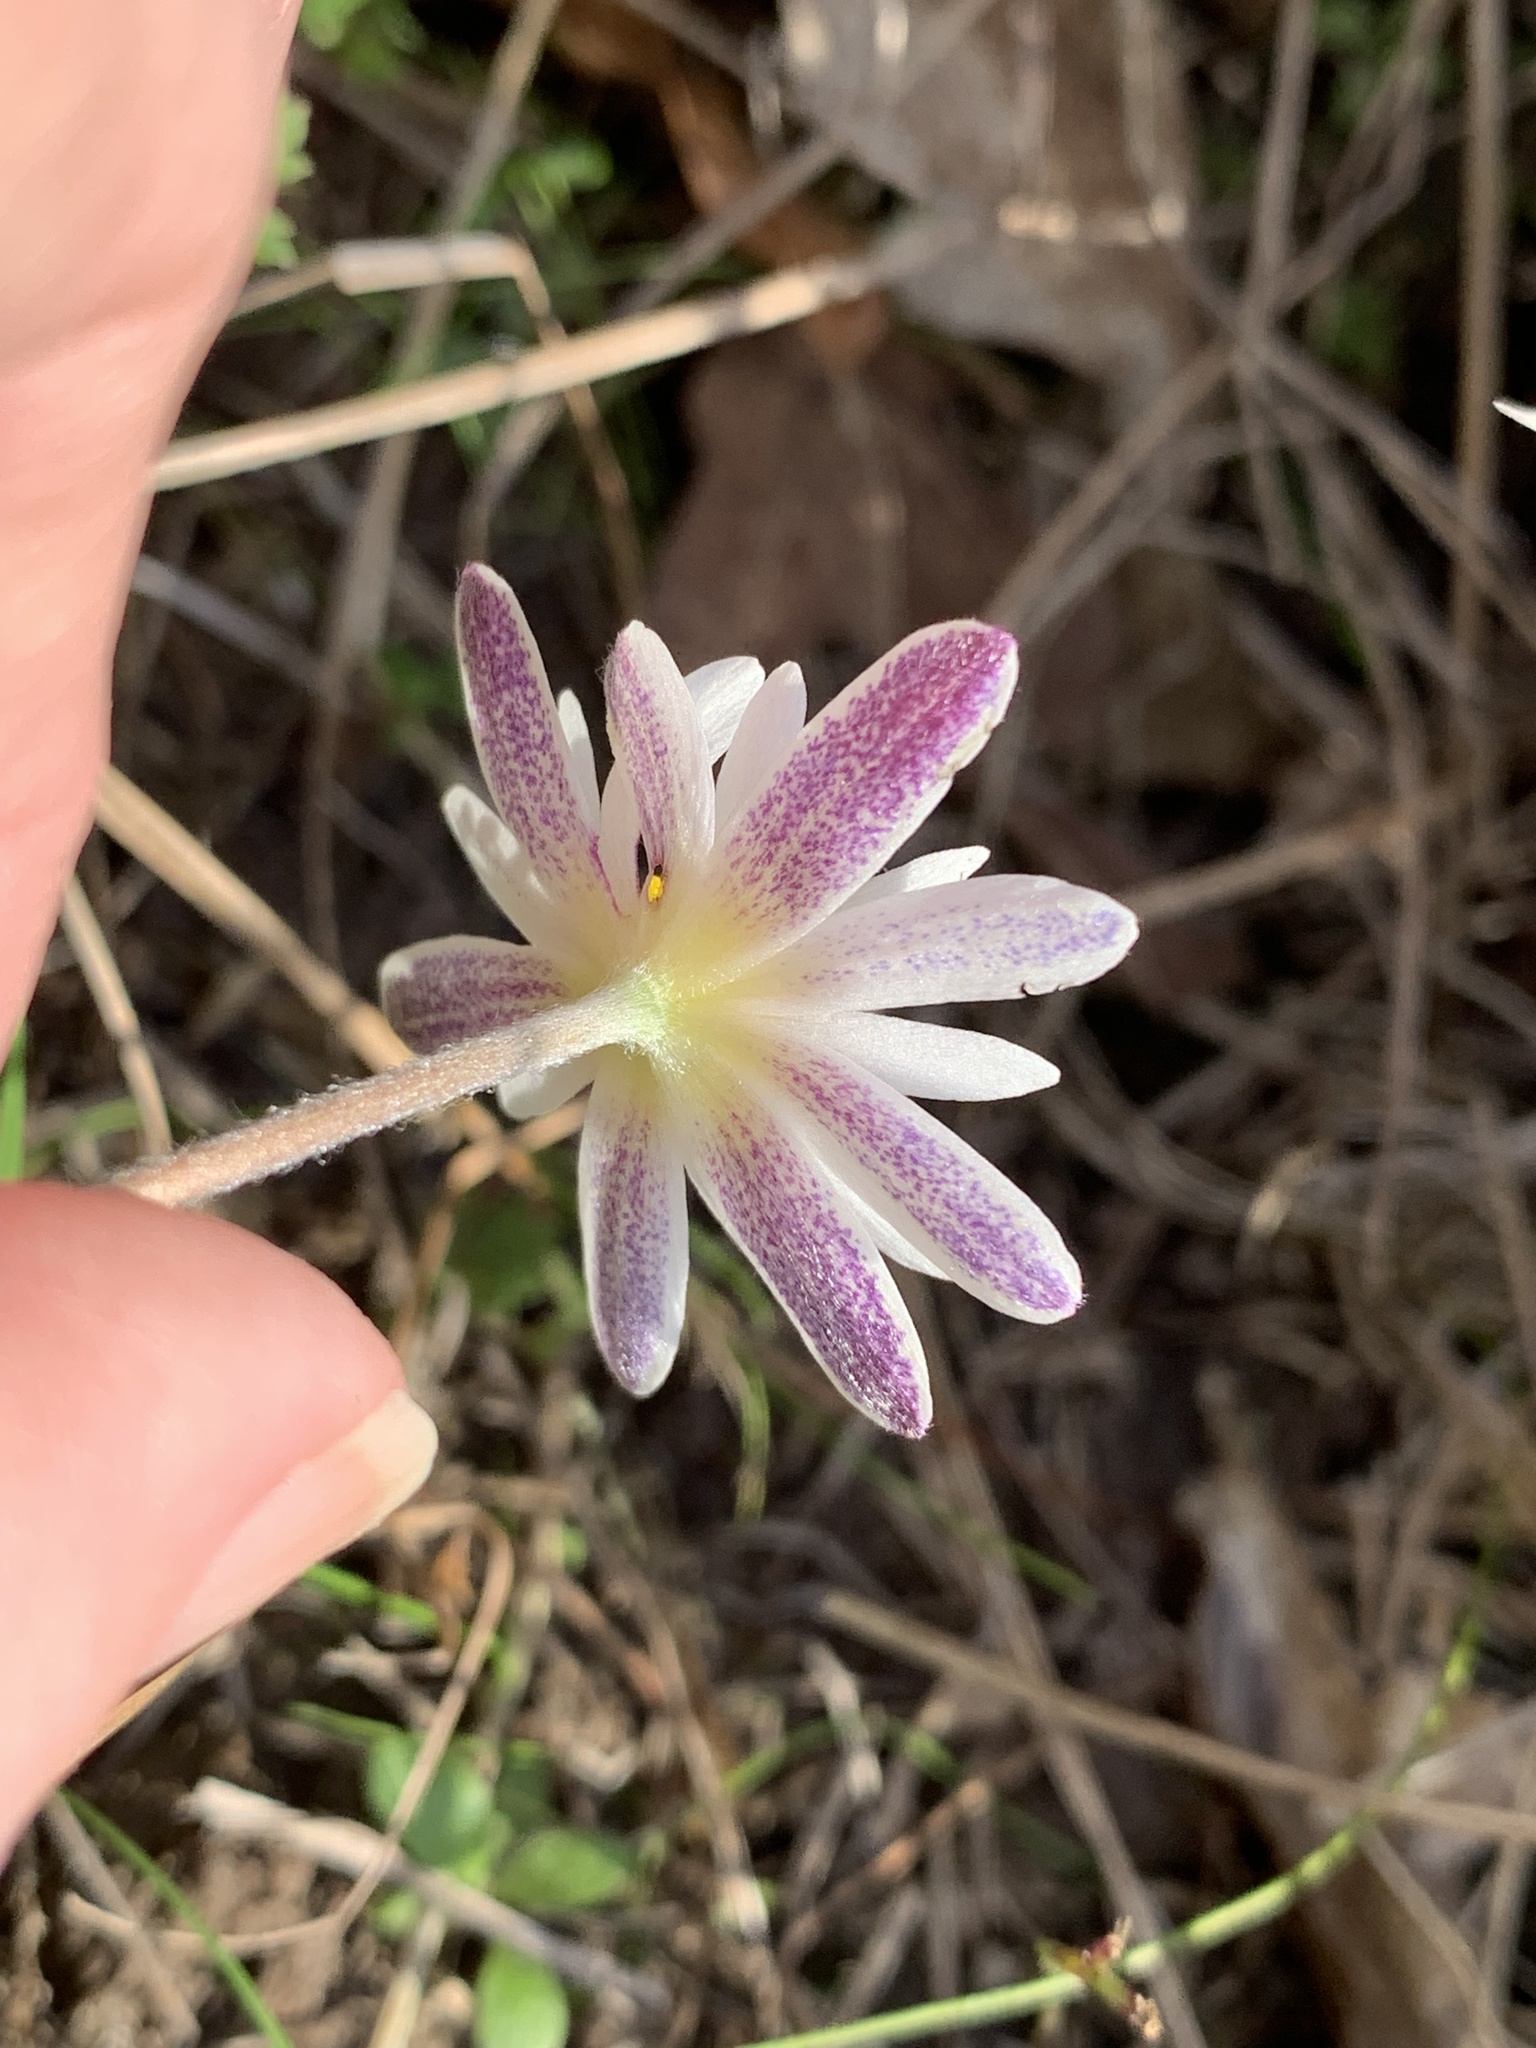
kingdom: Plantae
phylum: Tracheophyta
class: Magnoliopsida
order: Ranunculales
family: Ranunculaceae
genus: Anemone
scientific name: Anemone caroliniana
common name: Carolina anemone
